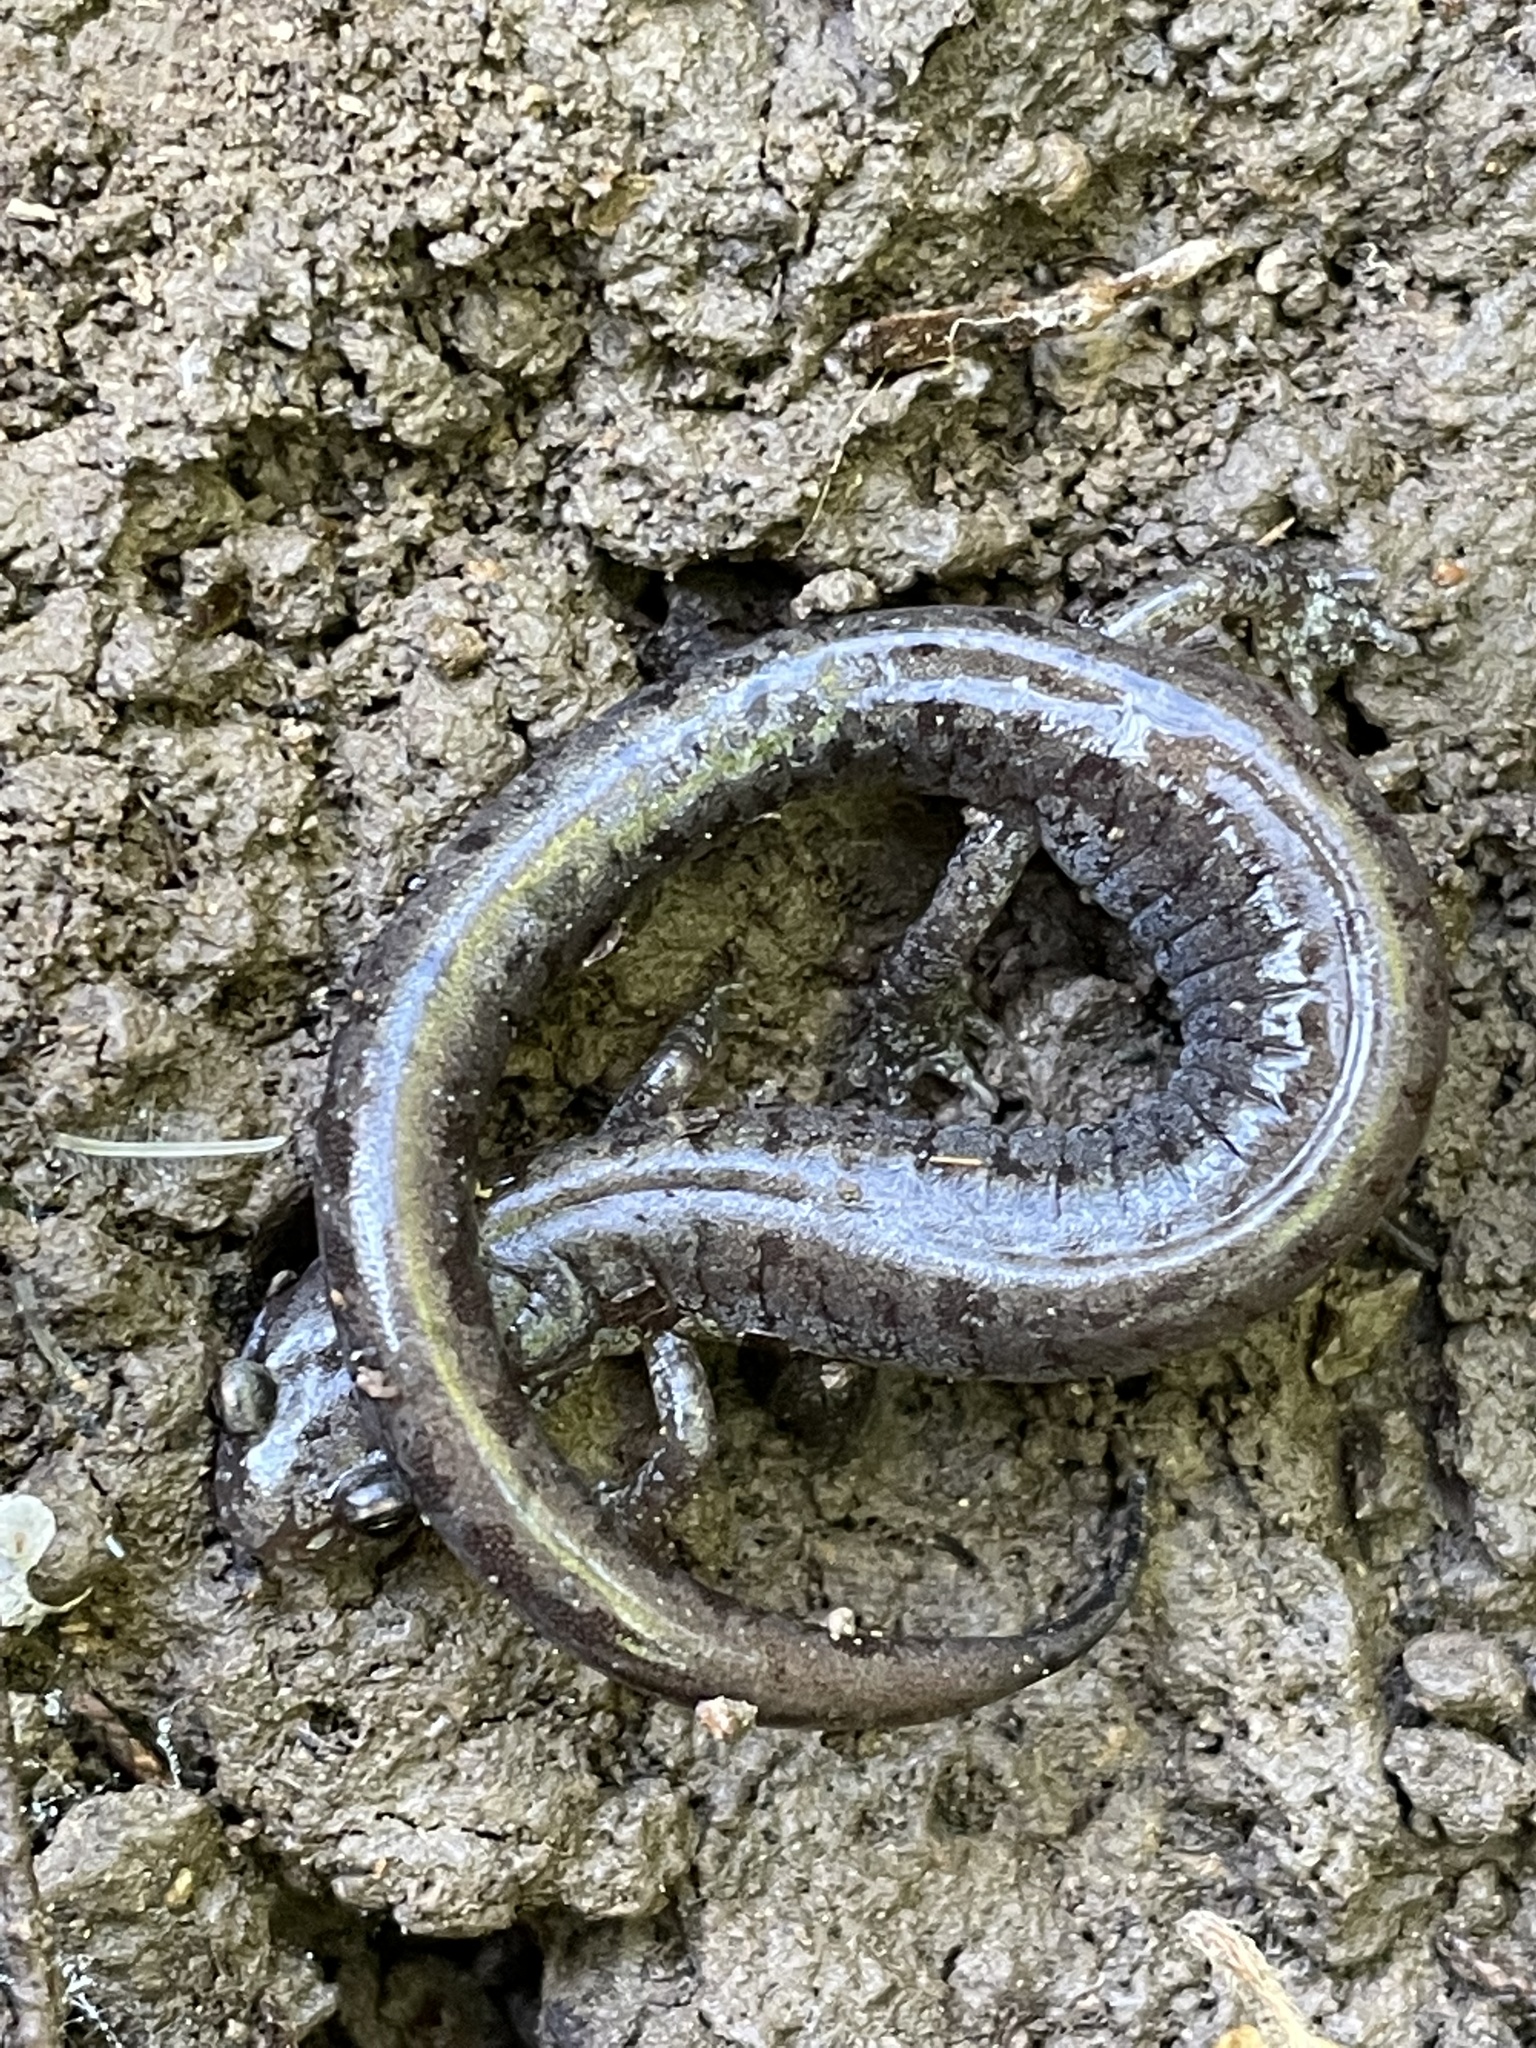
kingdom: Animalia
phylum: Chordata
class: Amphibia
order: Caudata
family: Plethodontidae
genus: Plethodon
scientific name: Plethodon dorsalis
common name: Northern zigzag salamander
